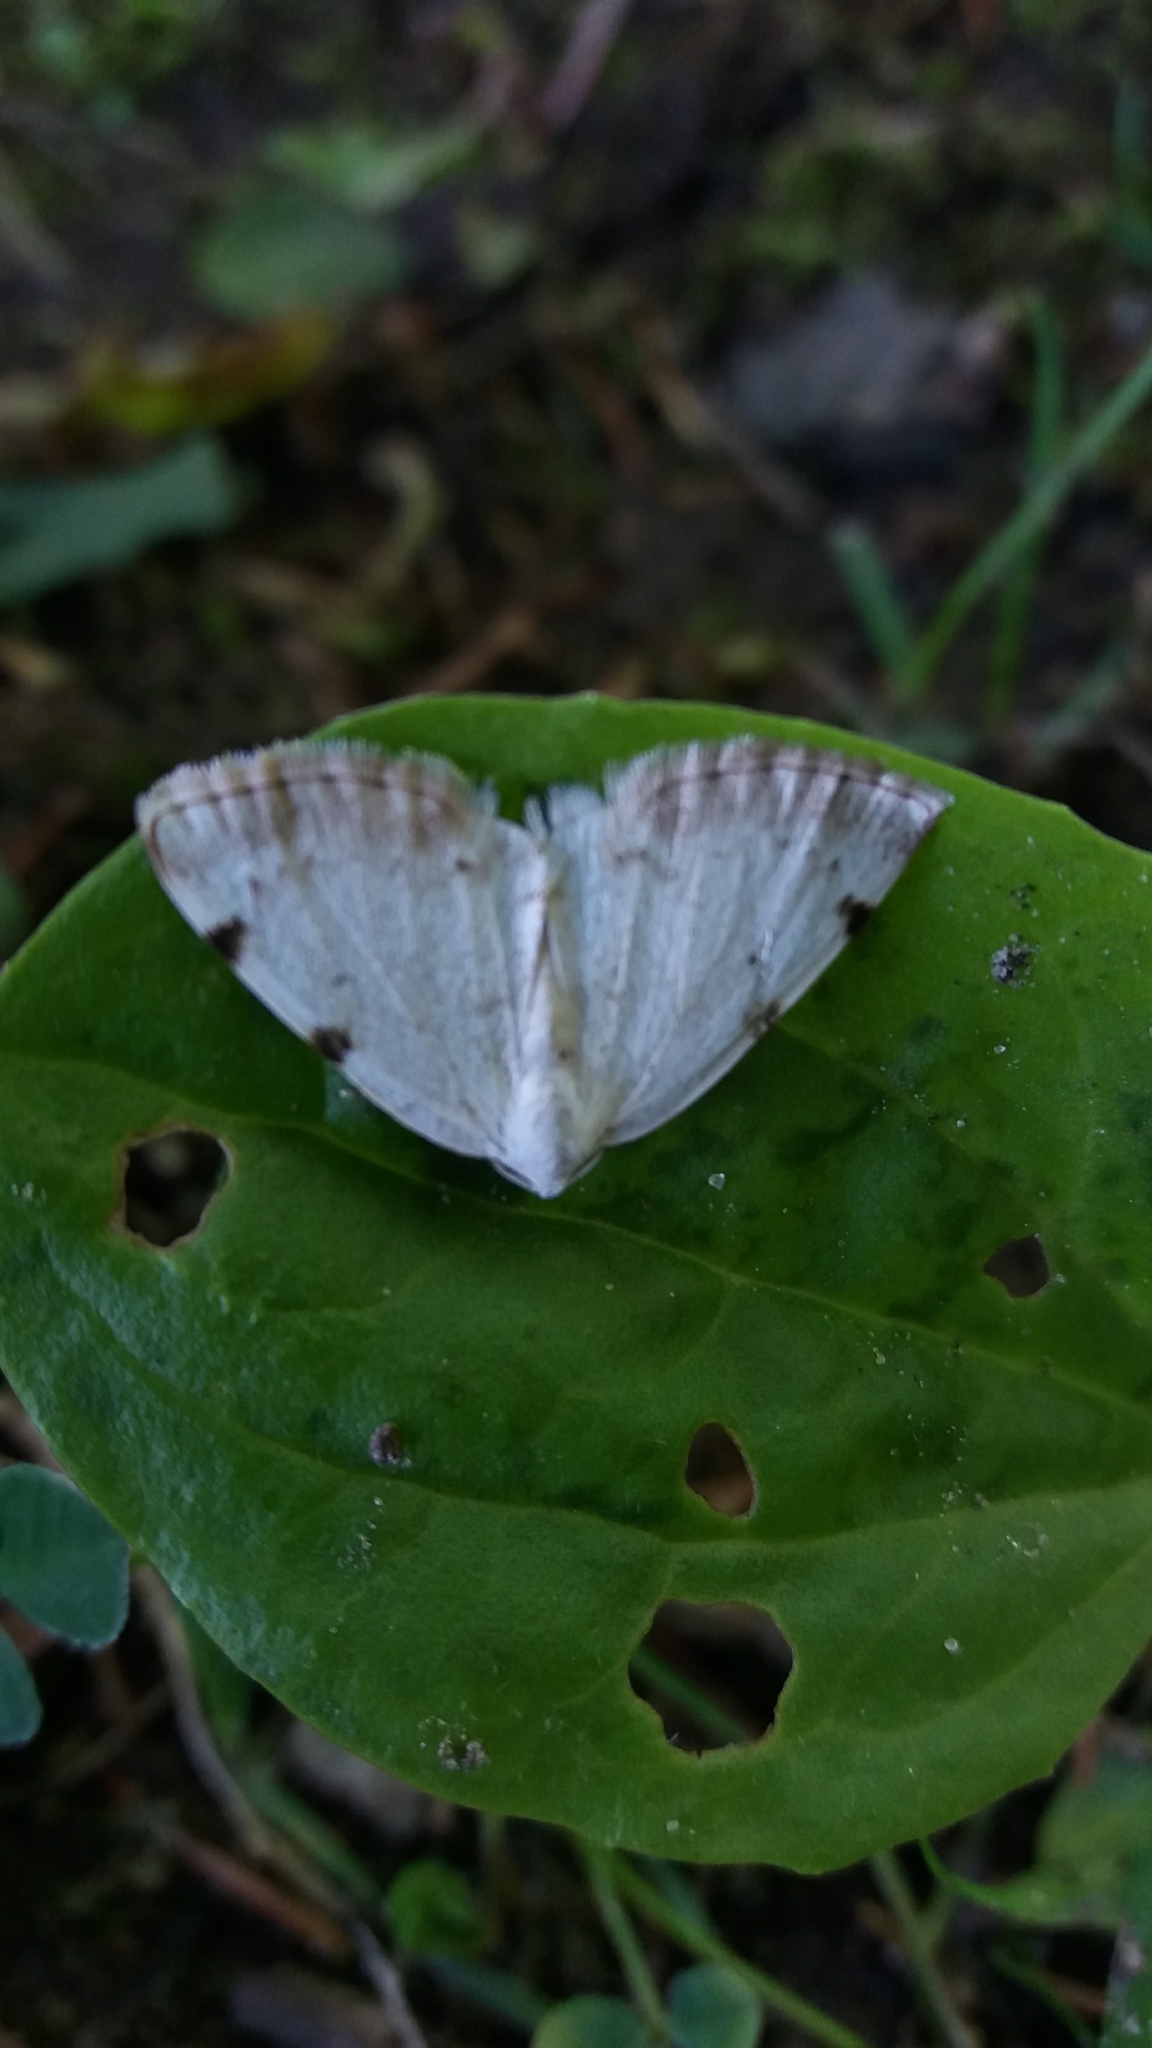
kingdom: Animalia
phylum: Arthropoda
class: Insecta
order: Lepidoptera
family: Geometridae
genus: Lomographa
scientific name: Lomographa bimaculata
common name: White-pinion spotted
